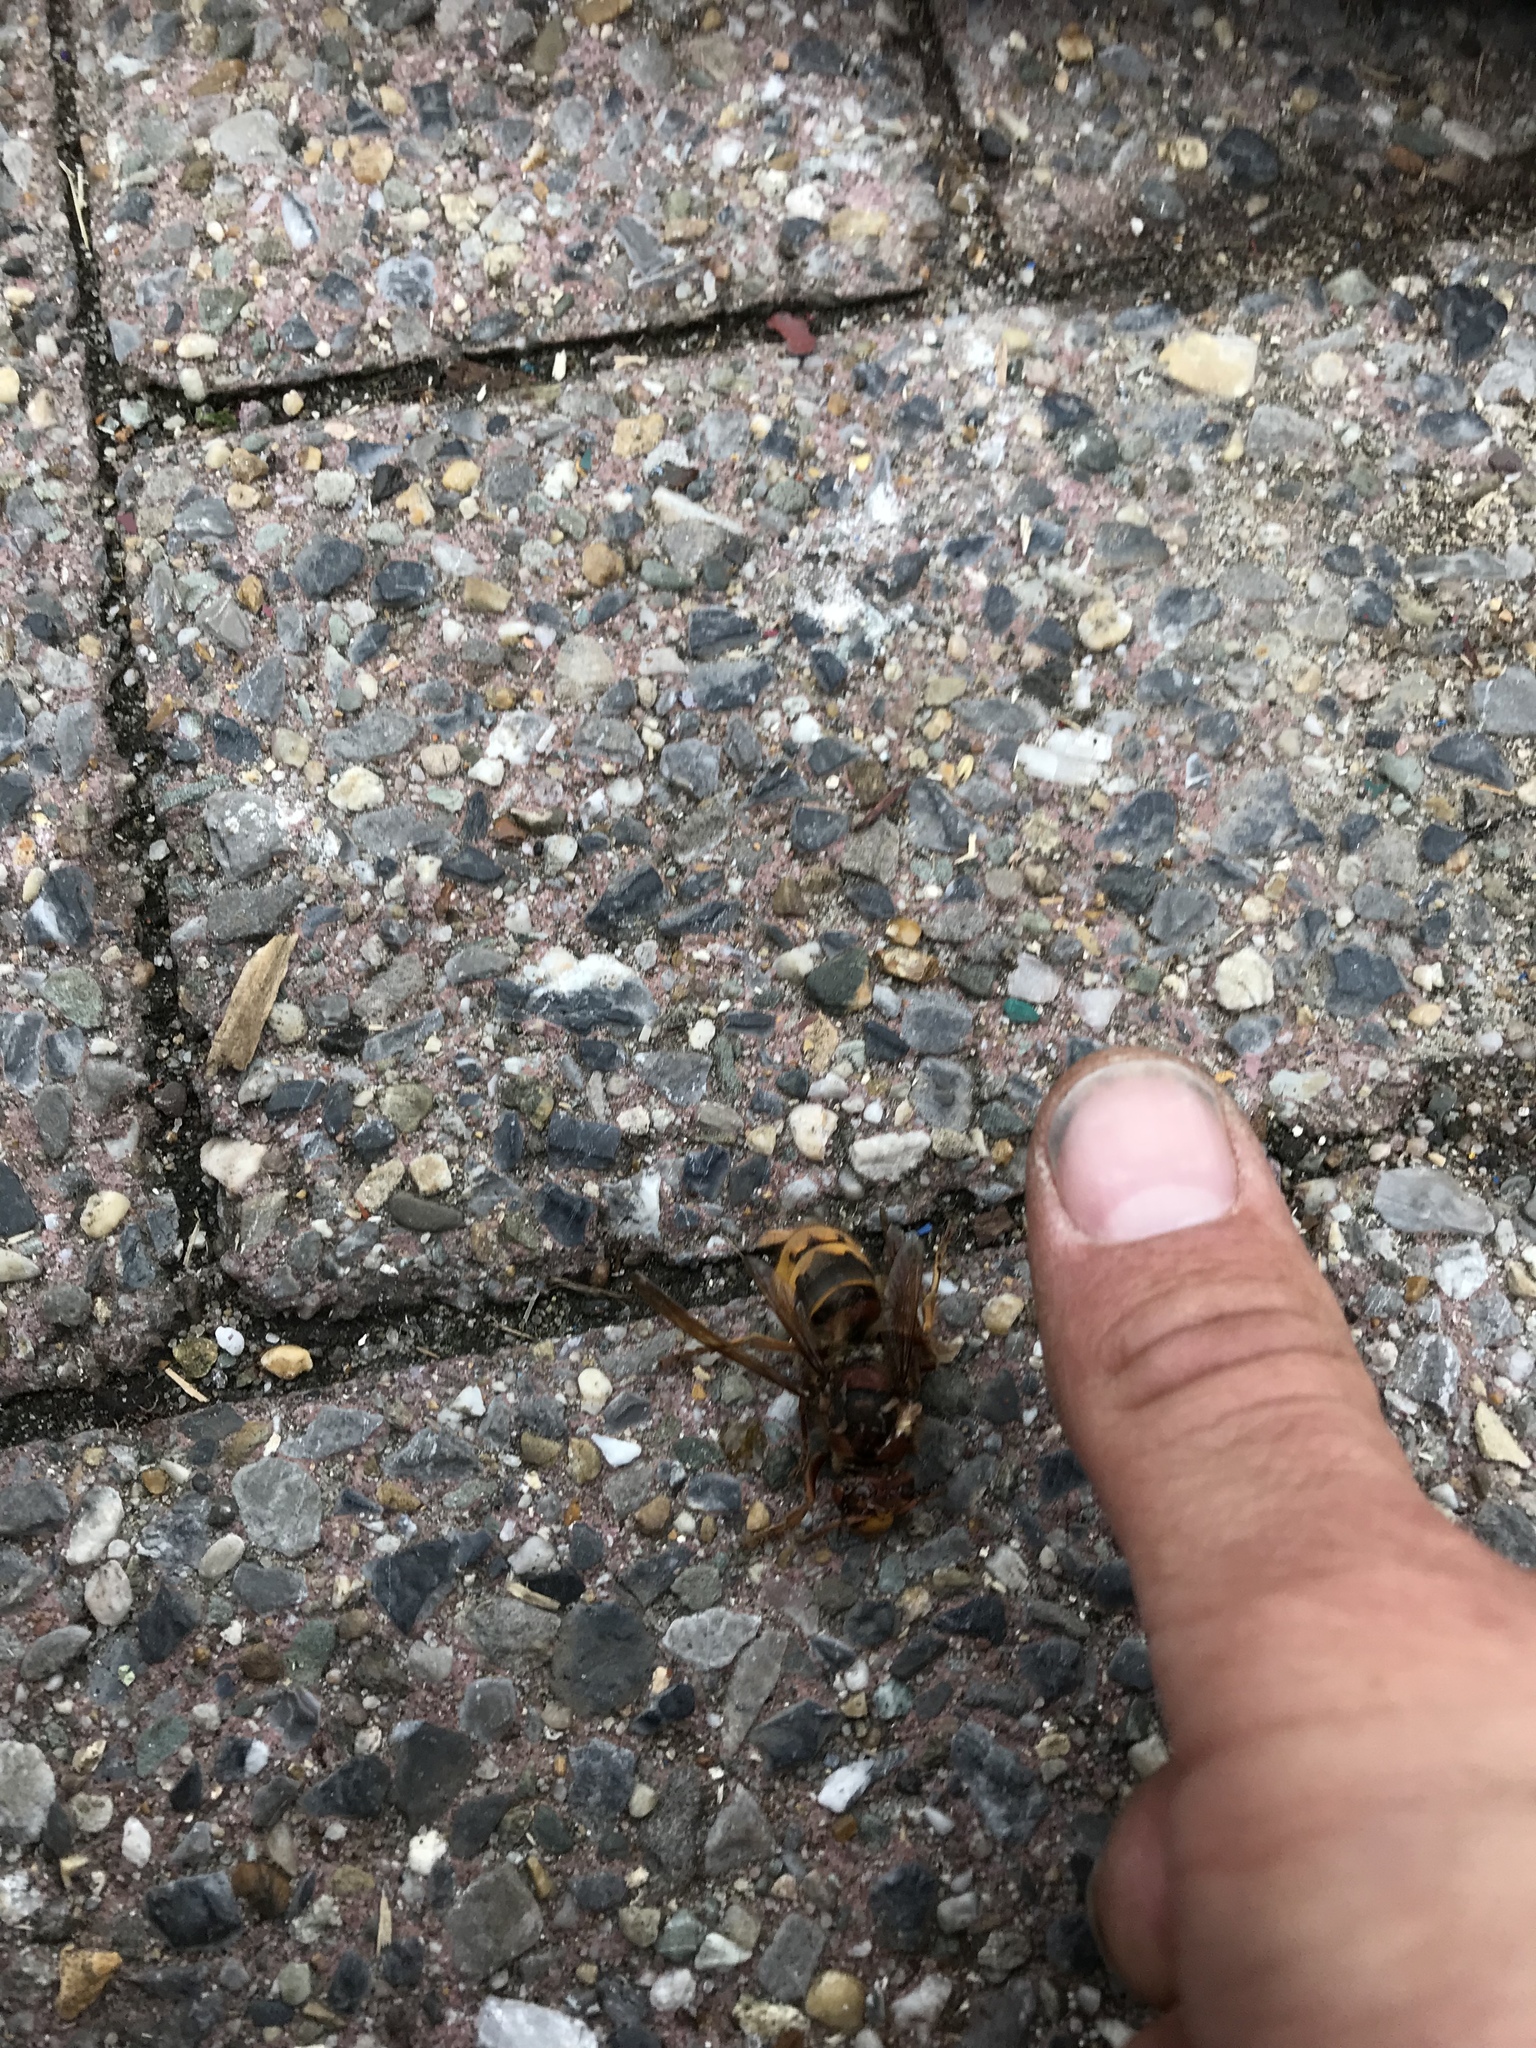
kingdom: Animalia
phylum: Arthropoda
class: Insecta
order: Hymenoptera
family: Vespidae
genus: Vespa
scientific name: Vespa crabro
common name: Hornet
